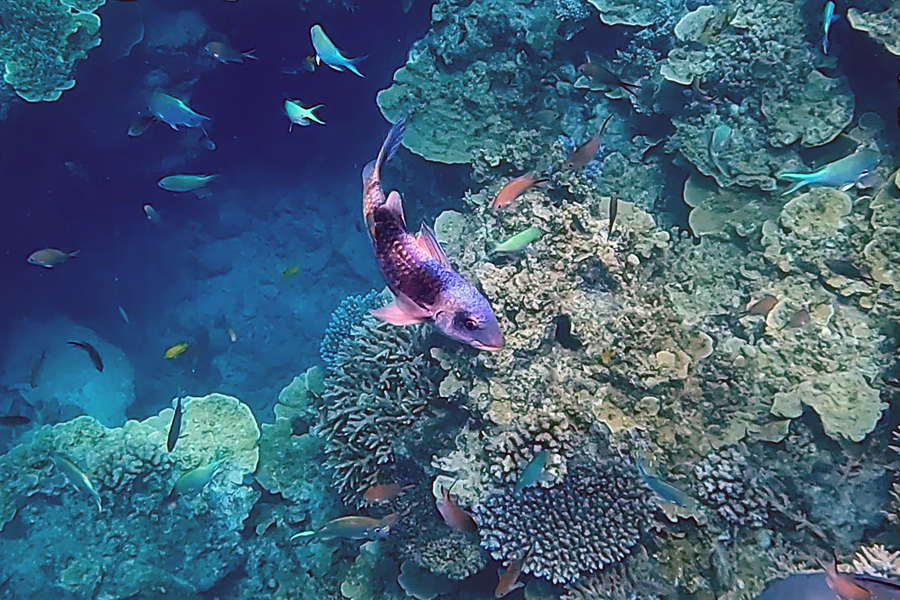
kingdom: Animalia
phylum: Chordata
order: Perciformes
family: Mullidae
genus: Parupeneus
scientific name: Parupeneus crassilabris
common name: Doublebar goatfish
